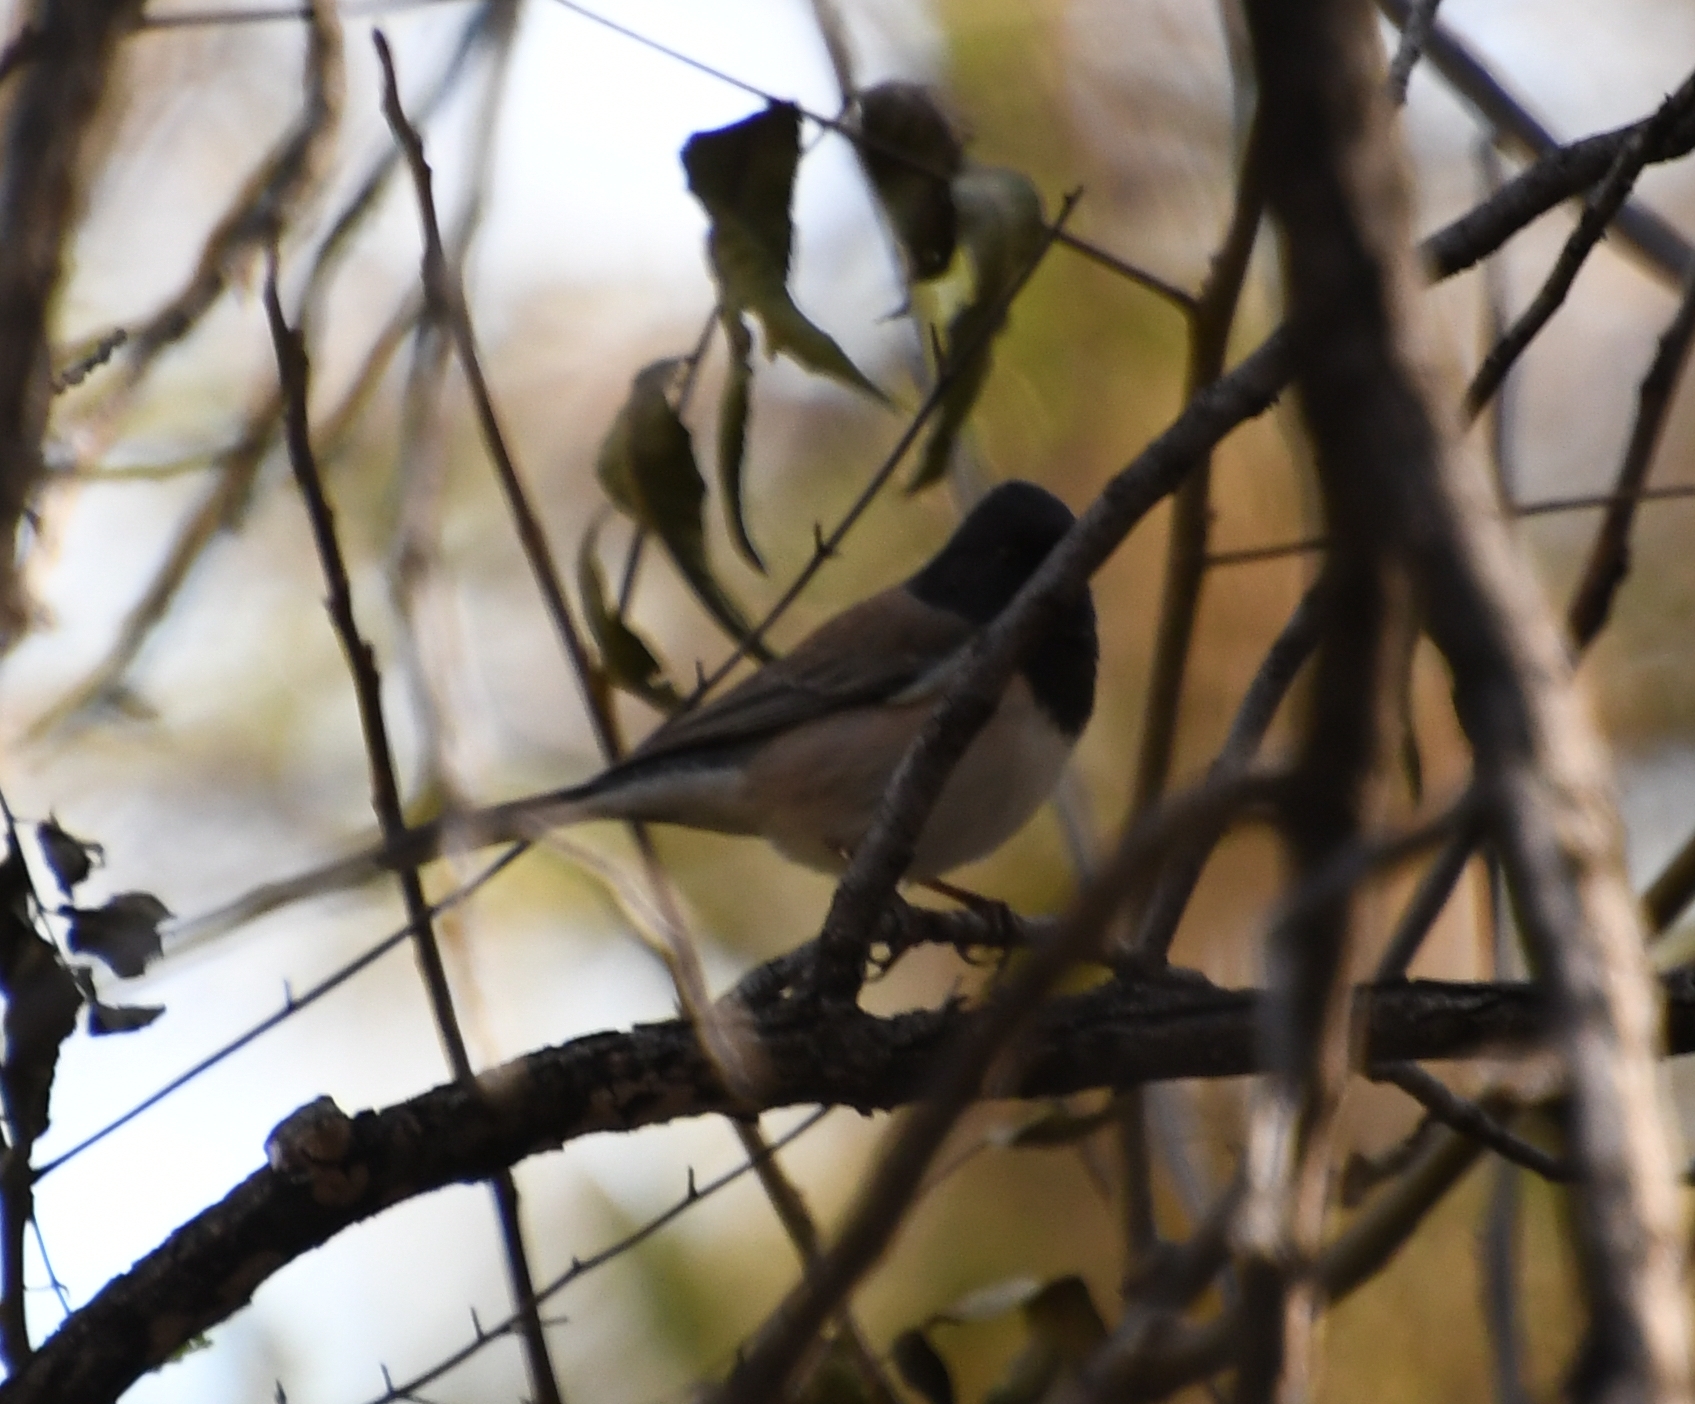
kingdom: Animalia
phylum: Chordata
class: Aves
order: Passeriformes
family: Passerellidae
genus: Junco
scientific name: Junco hyemalis
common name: Dark-eyed junco
